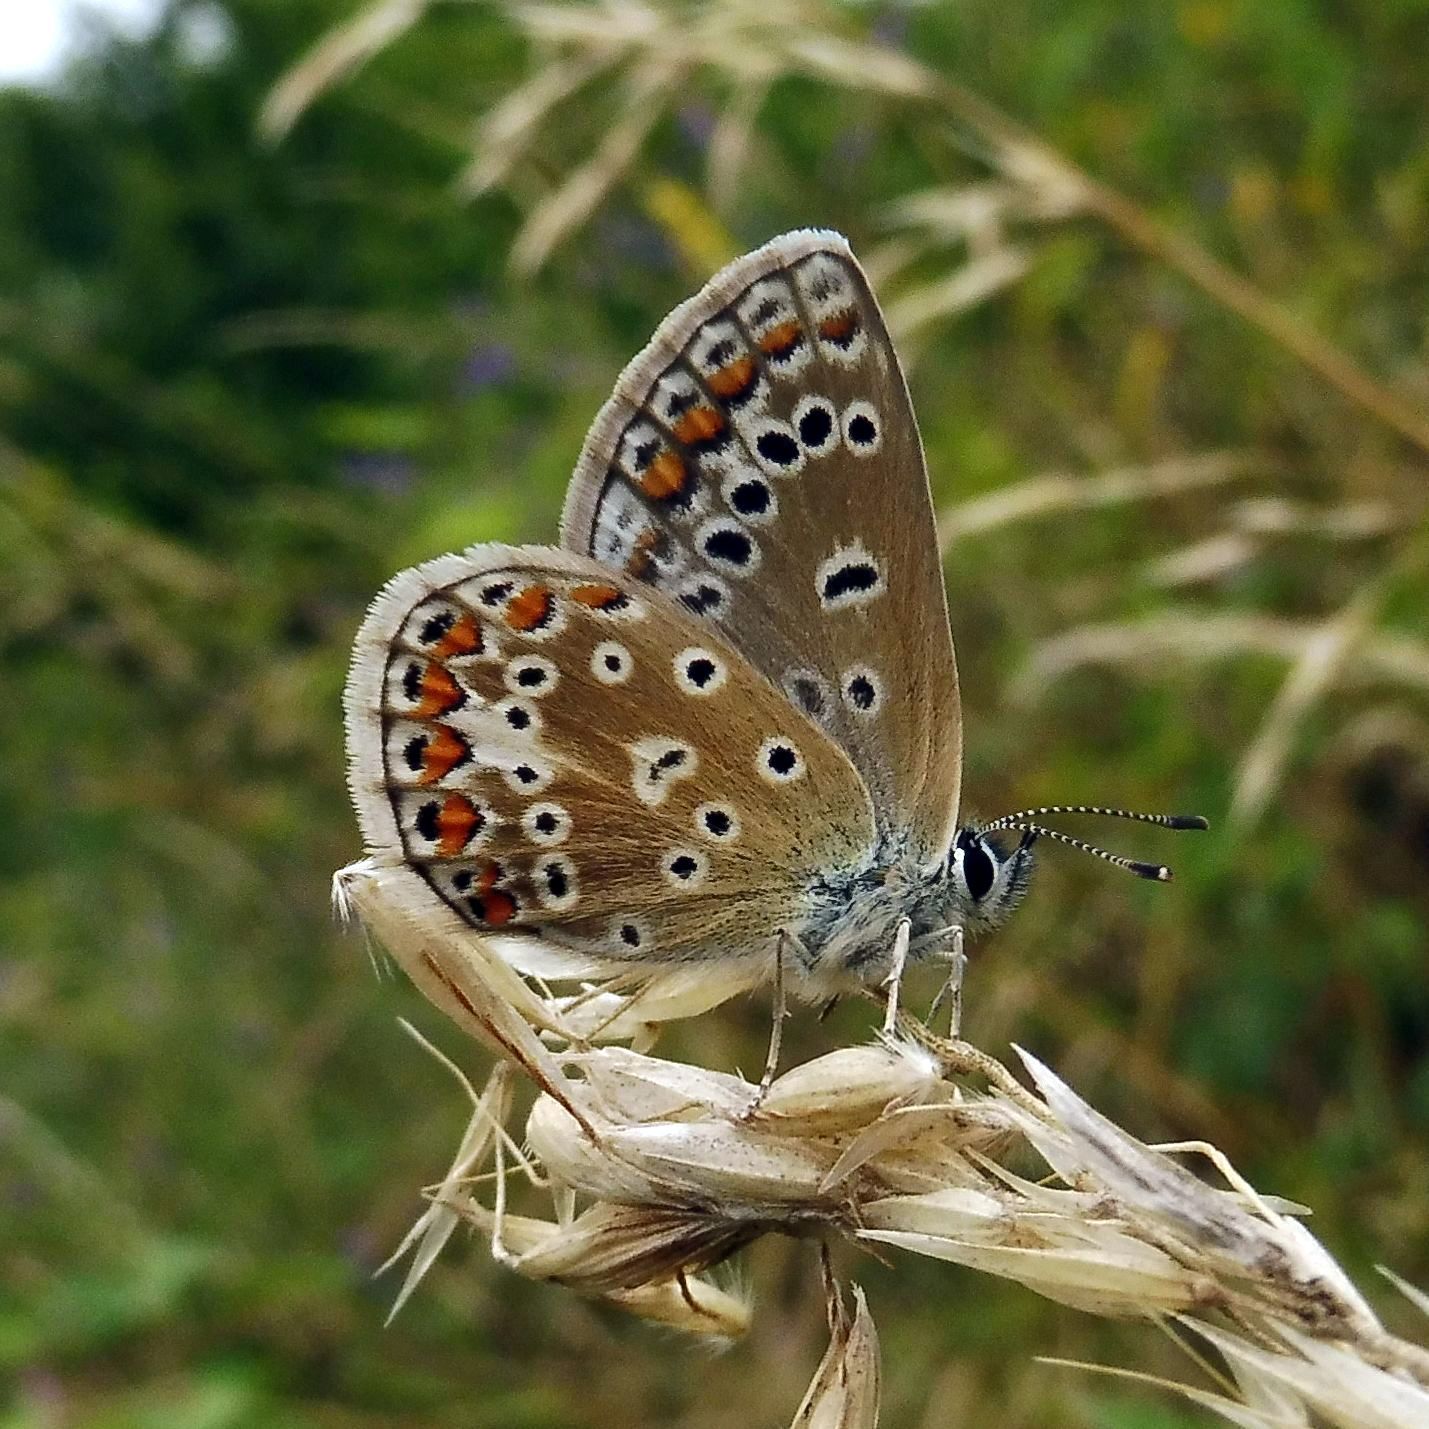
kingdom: Animalia
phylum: Arthropoda
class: Insecta
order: Lepidoptera
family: Lycaenidae
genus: Polyommatus
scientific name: Polyommatus icarus
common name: Common blue
